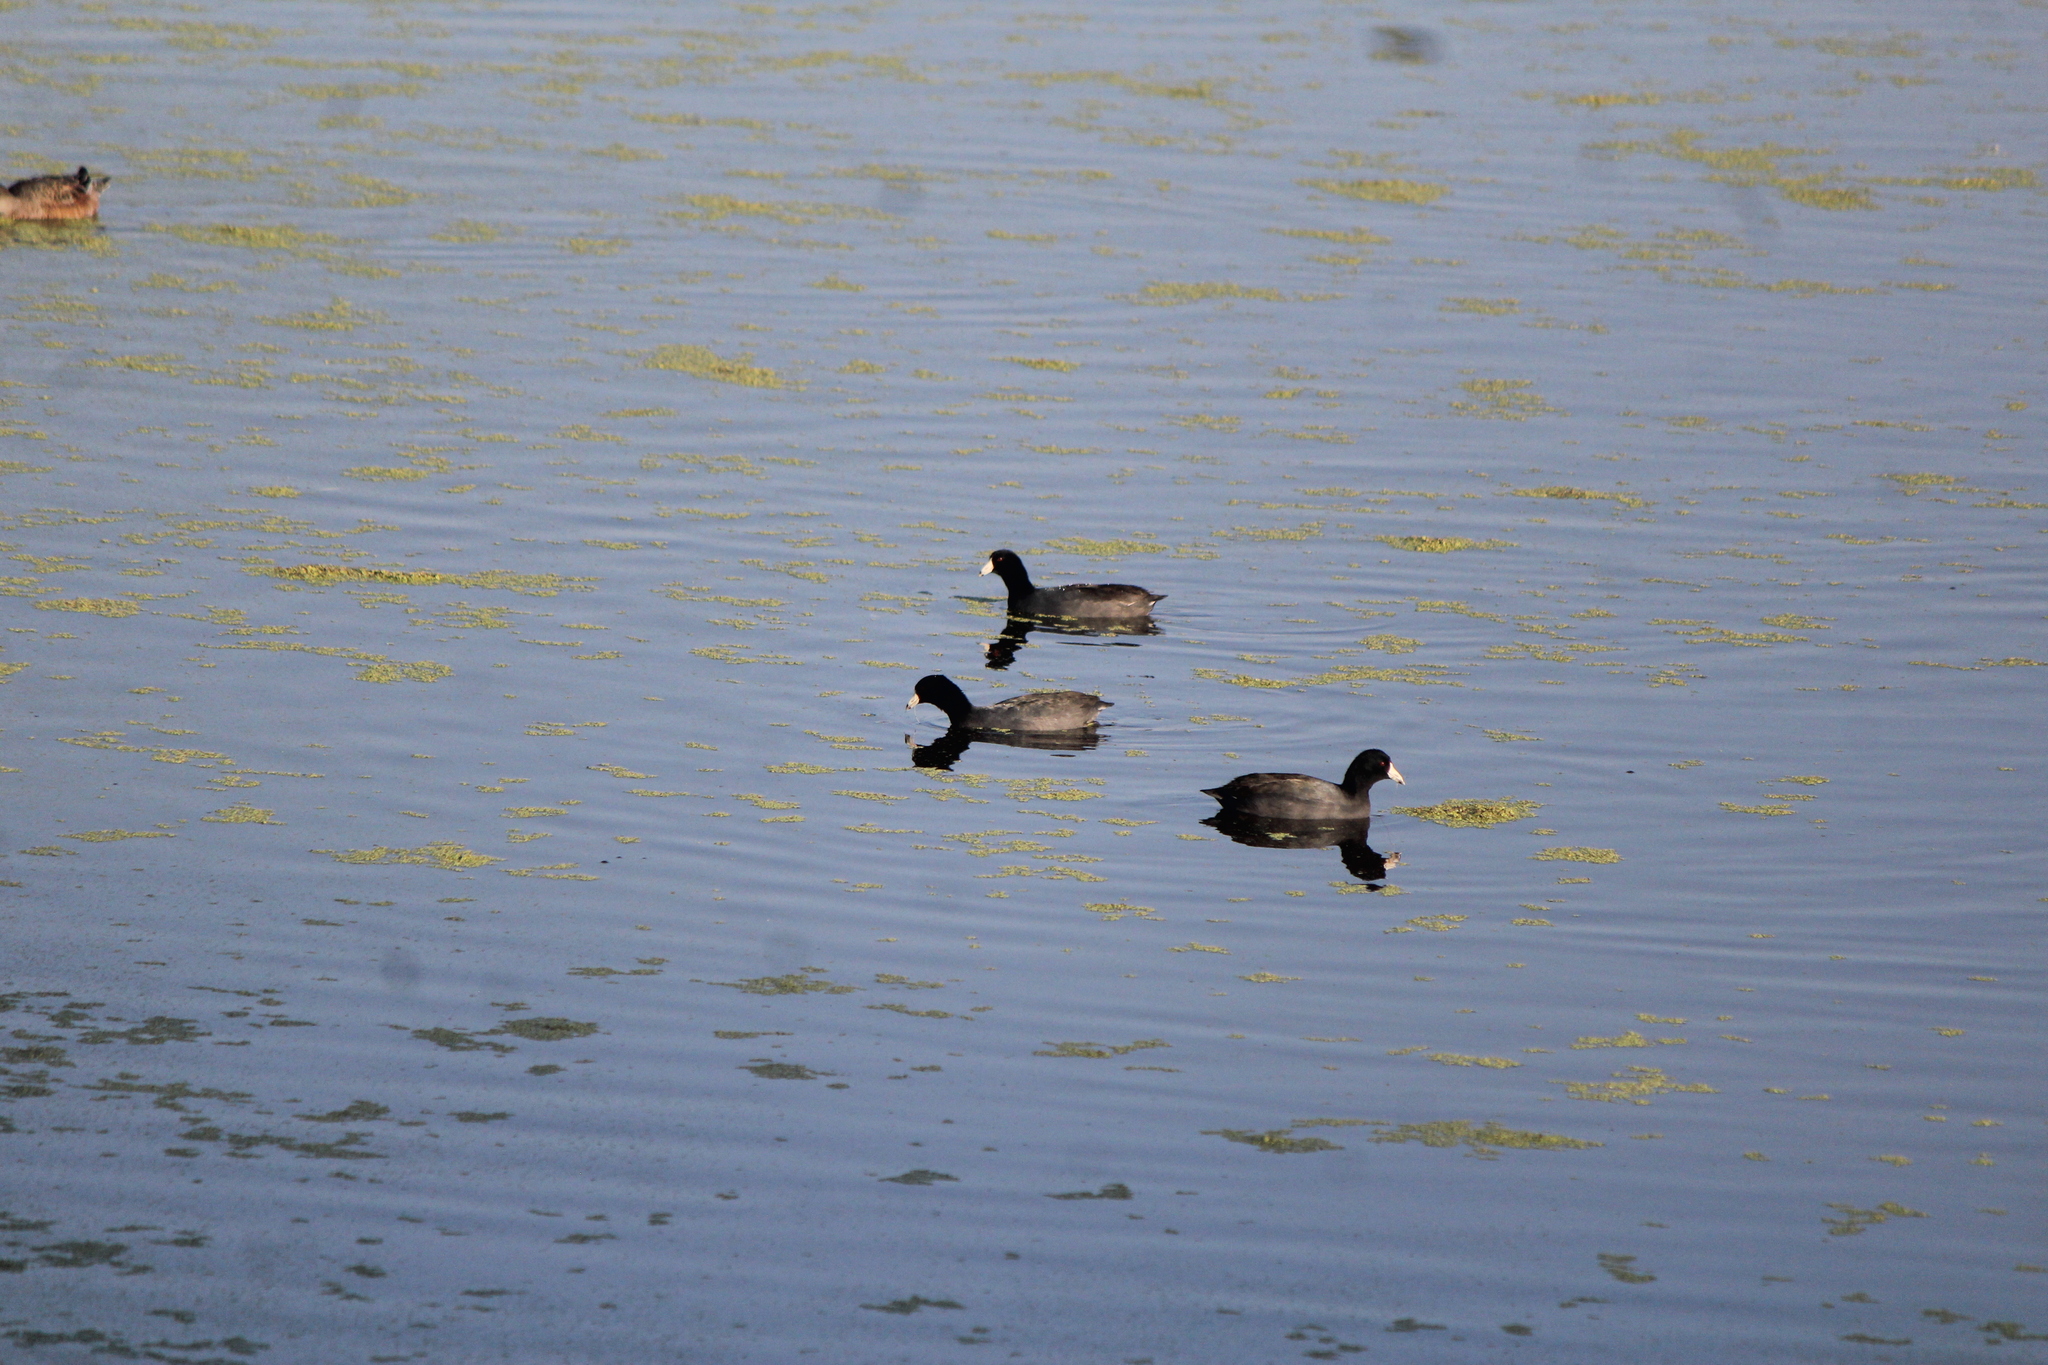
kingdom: Animalia
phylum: Chordata
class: Aves
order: Gruiformes
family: Rallidae
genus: Fulica
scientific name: Fulica americana
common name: American coot
